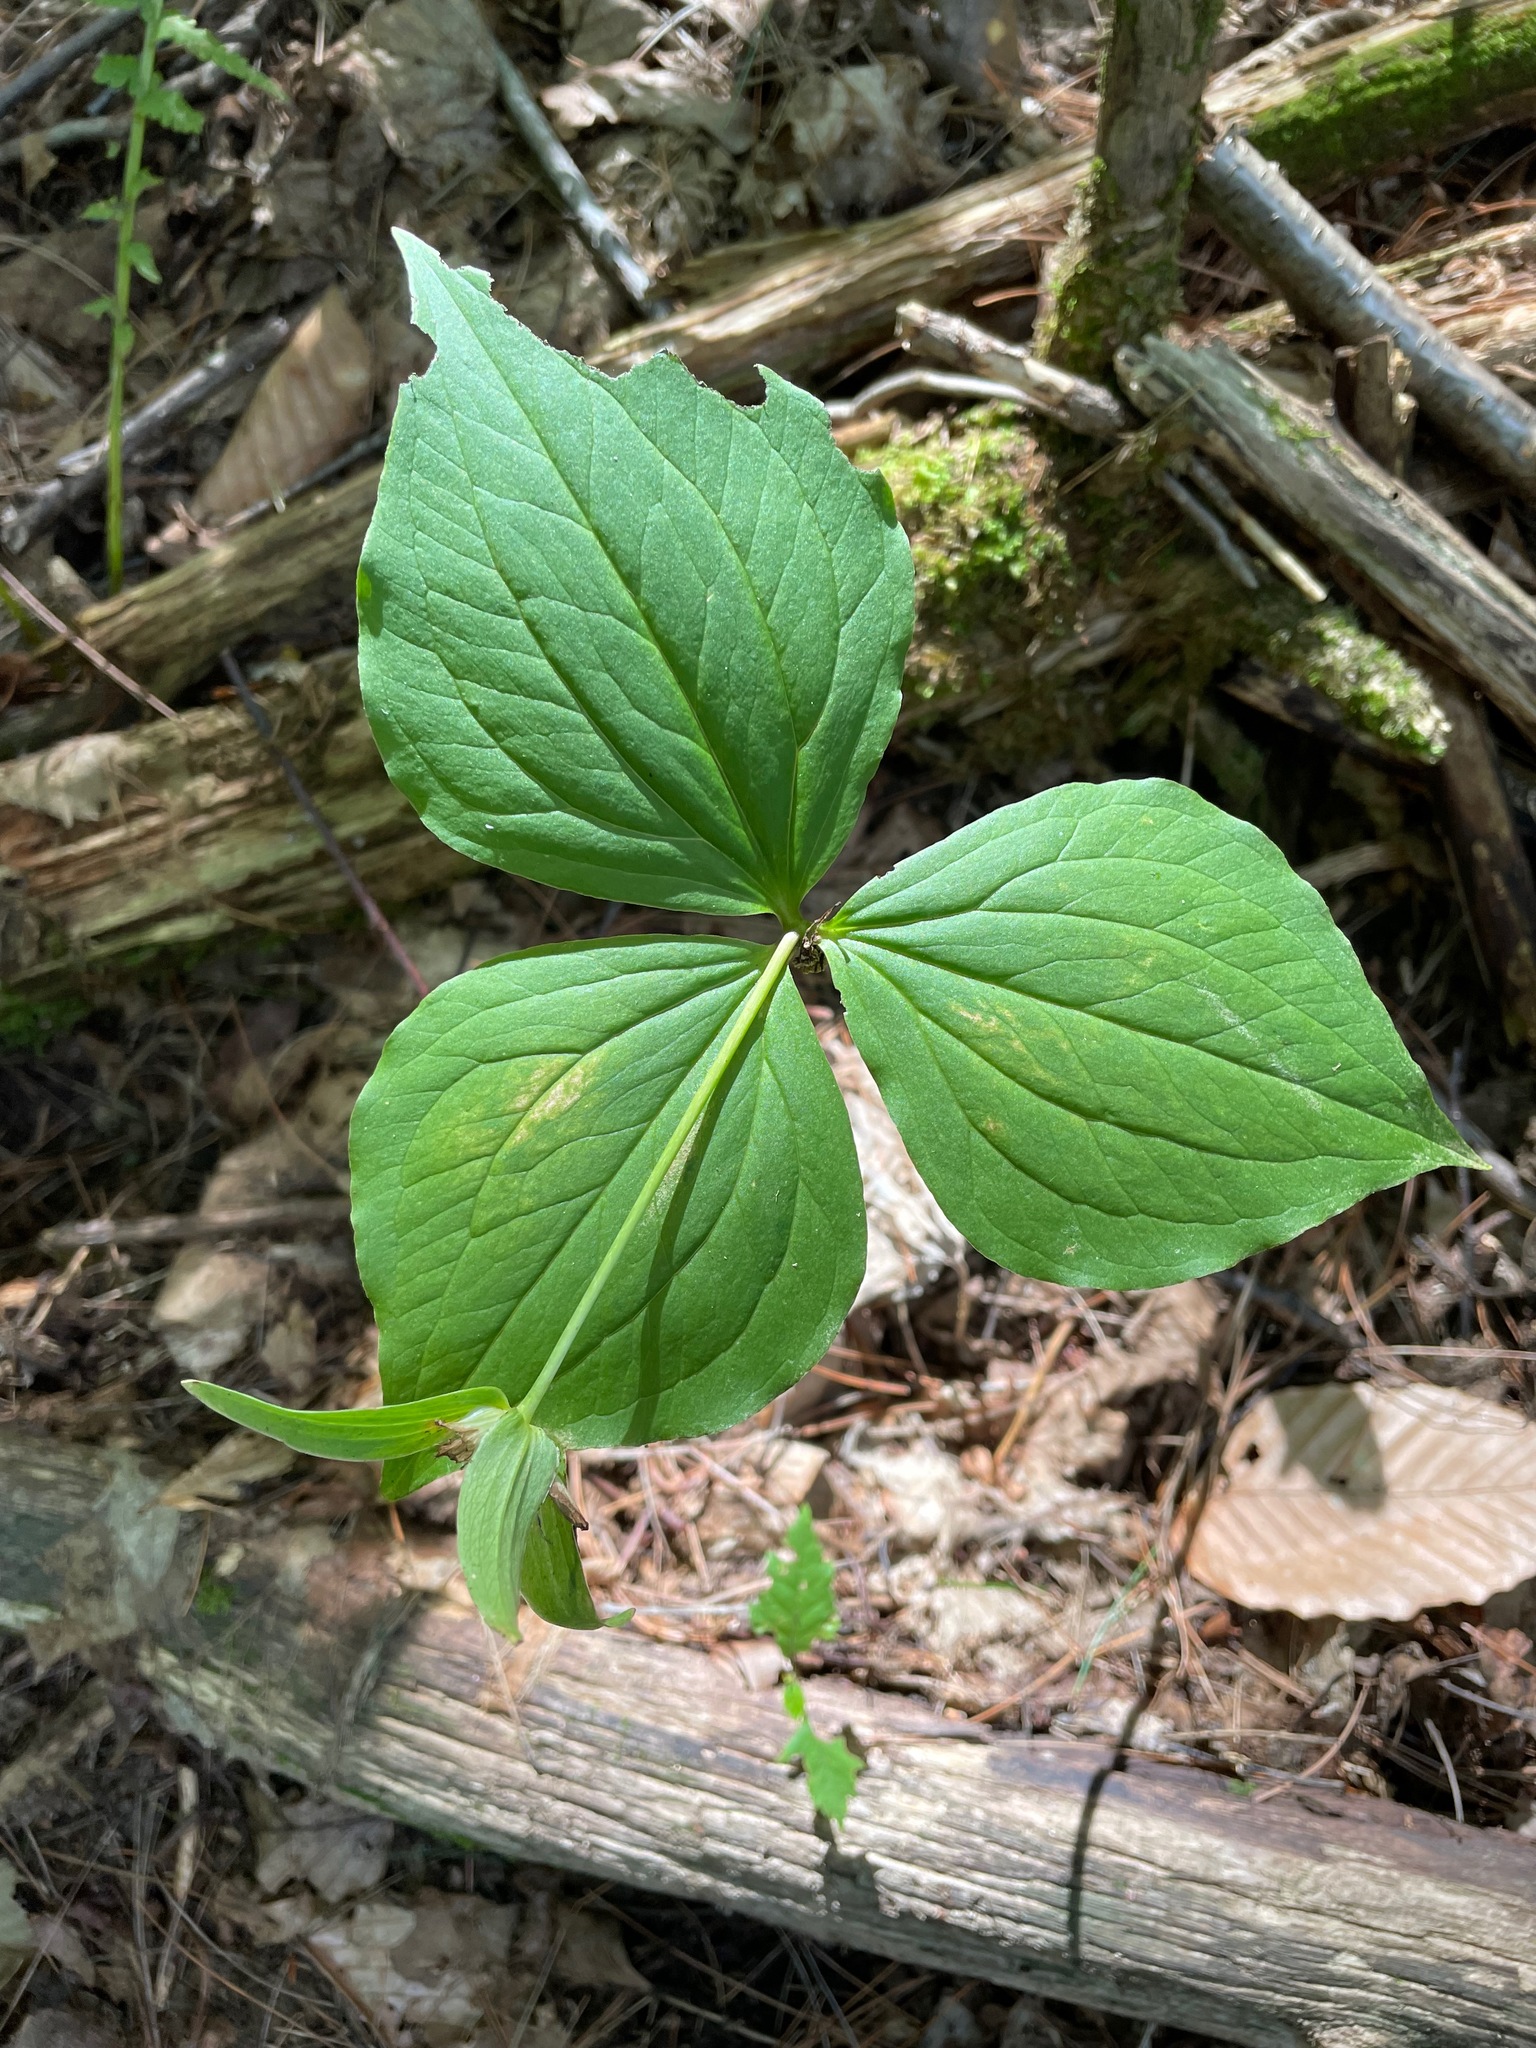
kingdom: Plantae
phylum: Tracheophyta
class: Liliopsida
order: Liliales
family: Melanthiaceae
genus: Trillium
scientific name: Trillium grandiflorum
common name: Great white trillium
